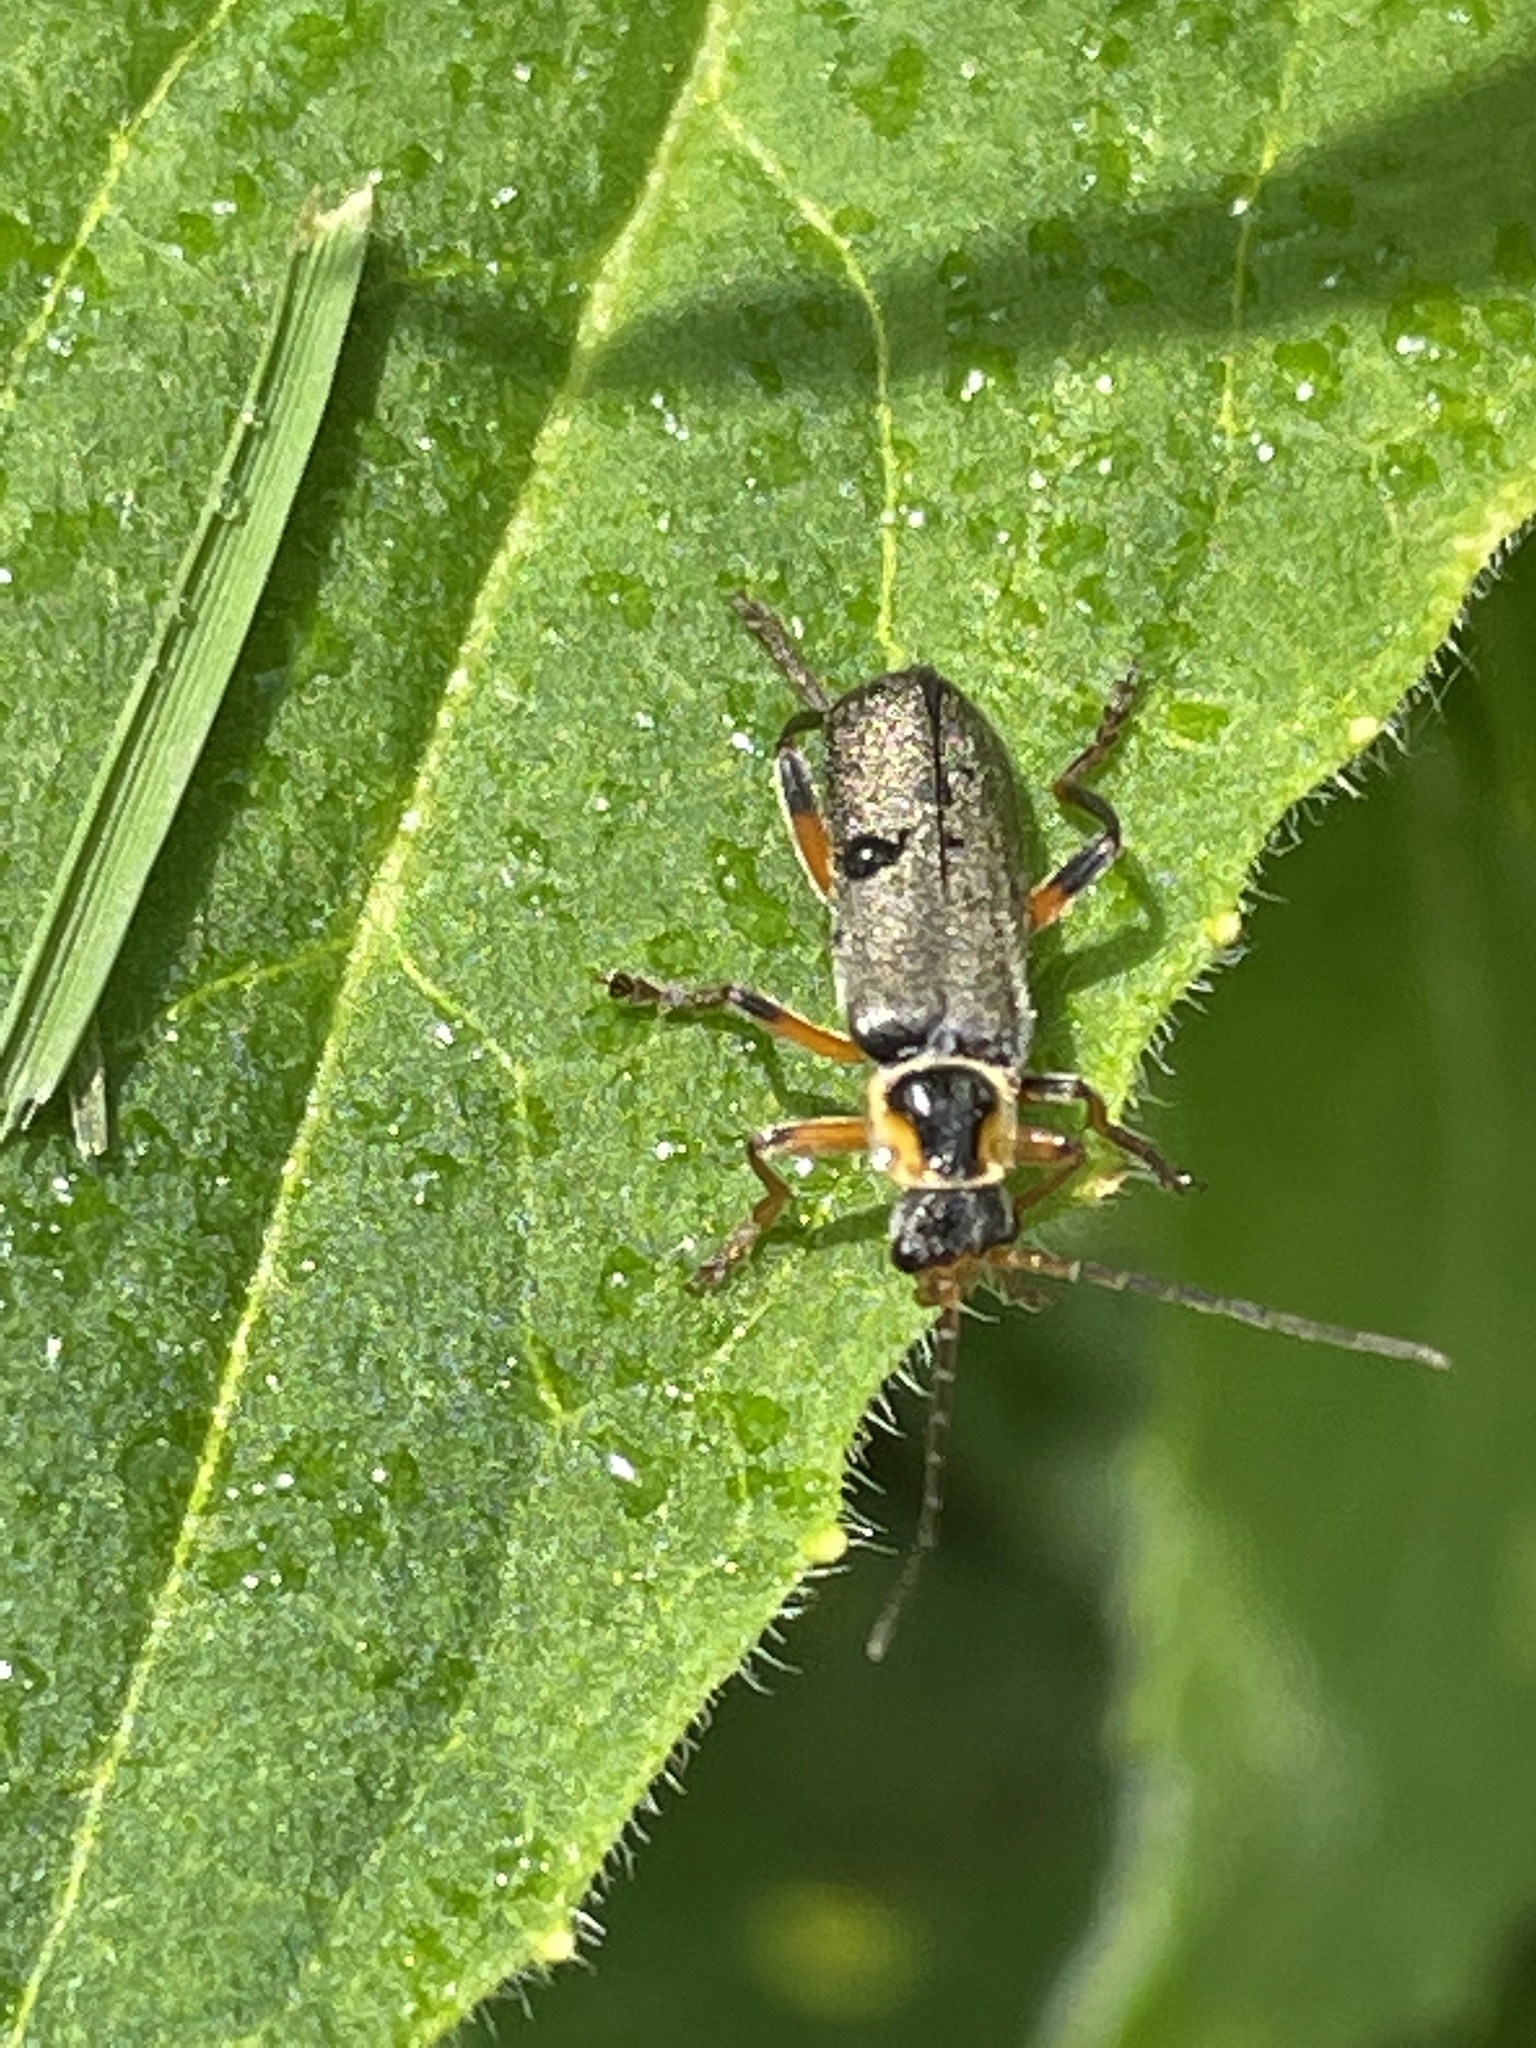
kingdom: Animalia
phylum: Arthropoda
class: Insecta
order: Coleoptera
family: Cantharidae
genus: Cantharis
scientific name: Cantharis nigricans
